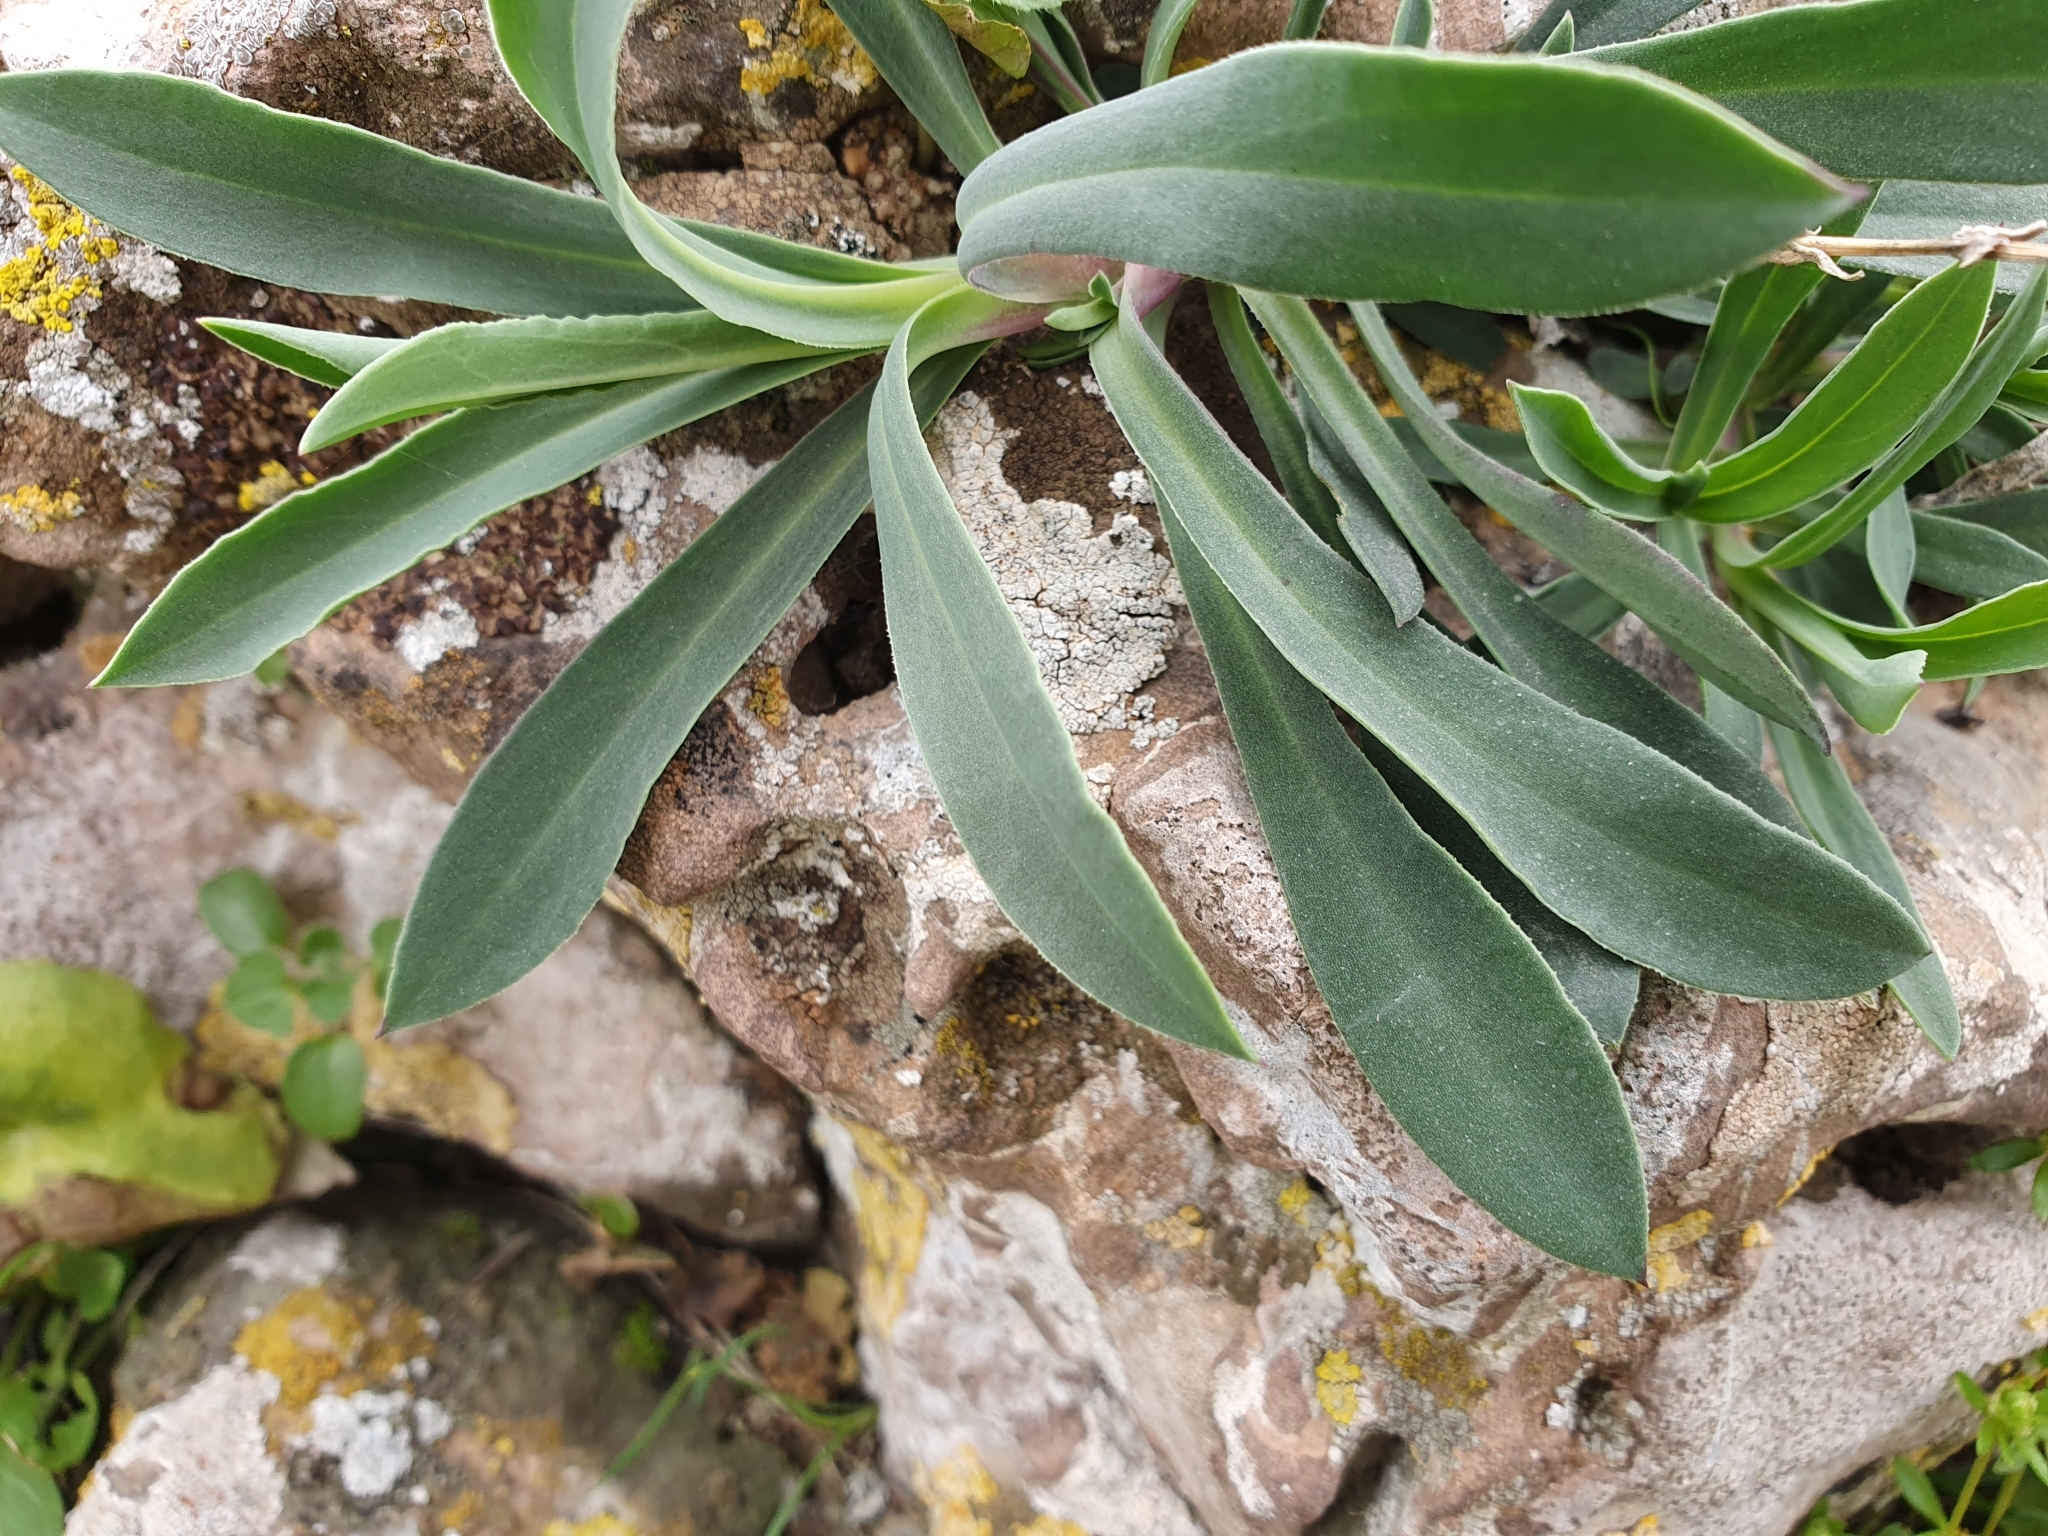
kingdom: Plantae
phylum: Tracheophyta
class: Magnoliopsida
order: Caryophyllales
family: Caryophyllaceae
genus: Silene
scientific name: Silene vulgaris
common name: Bladder campion
